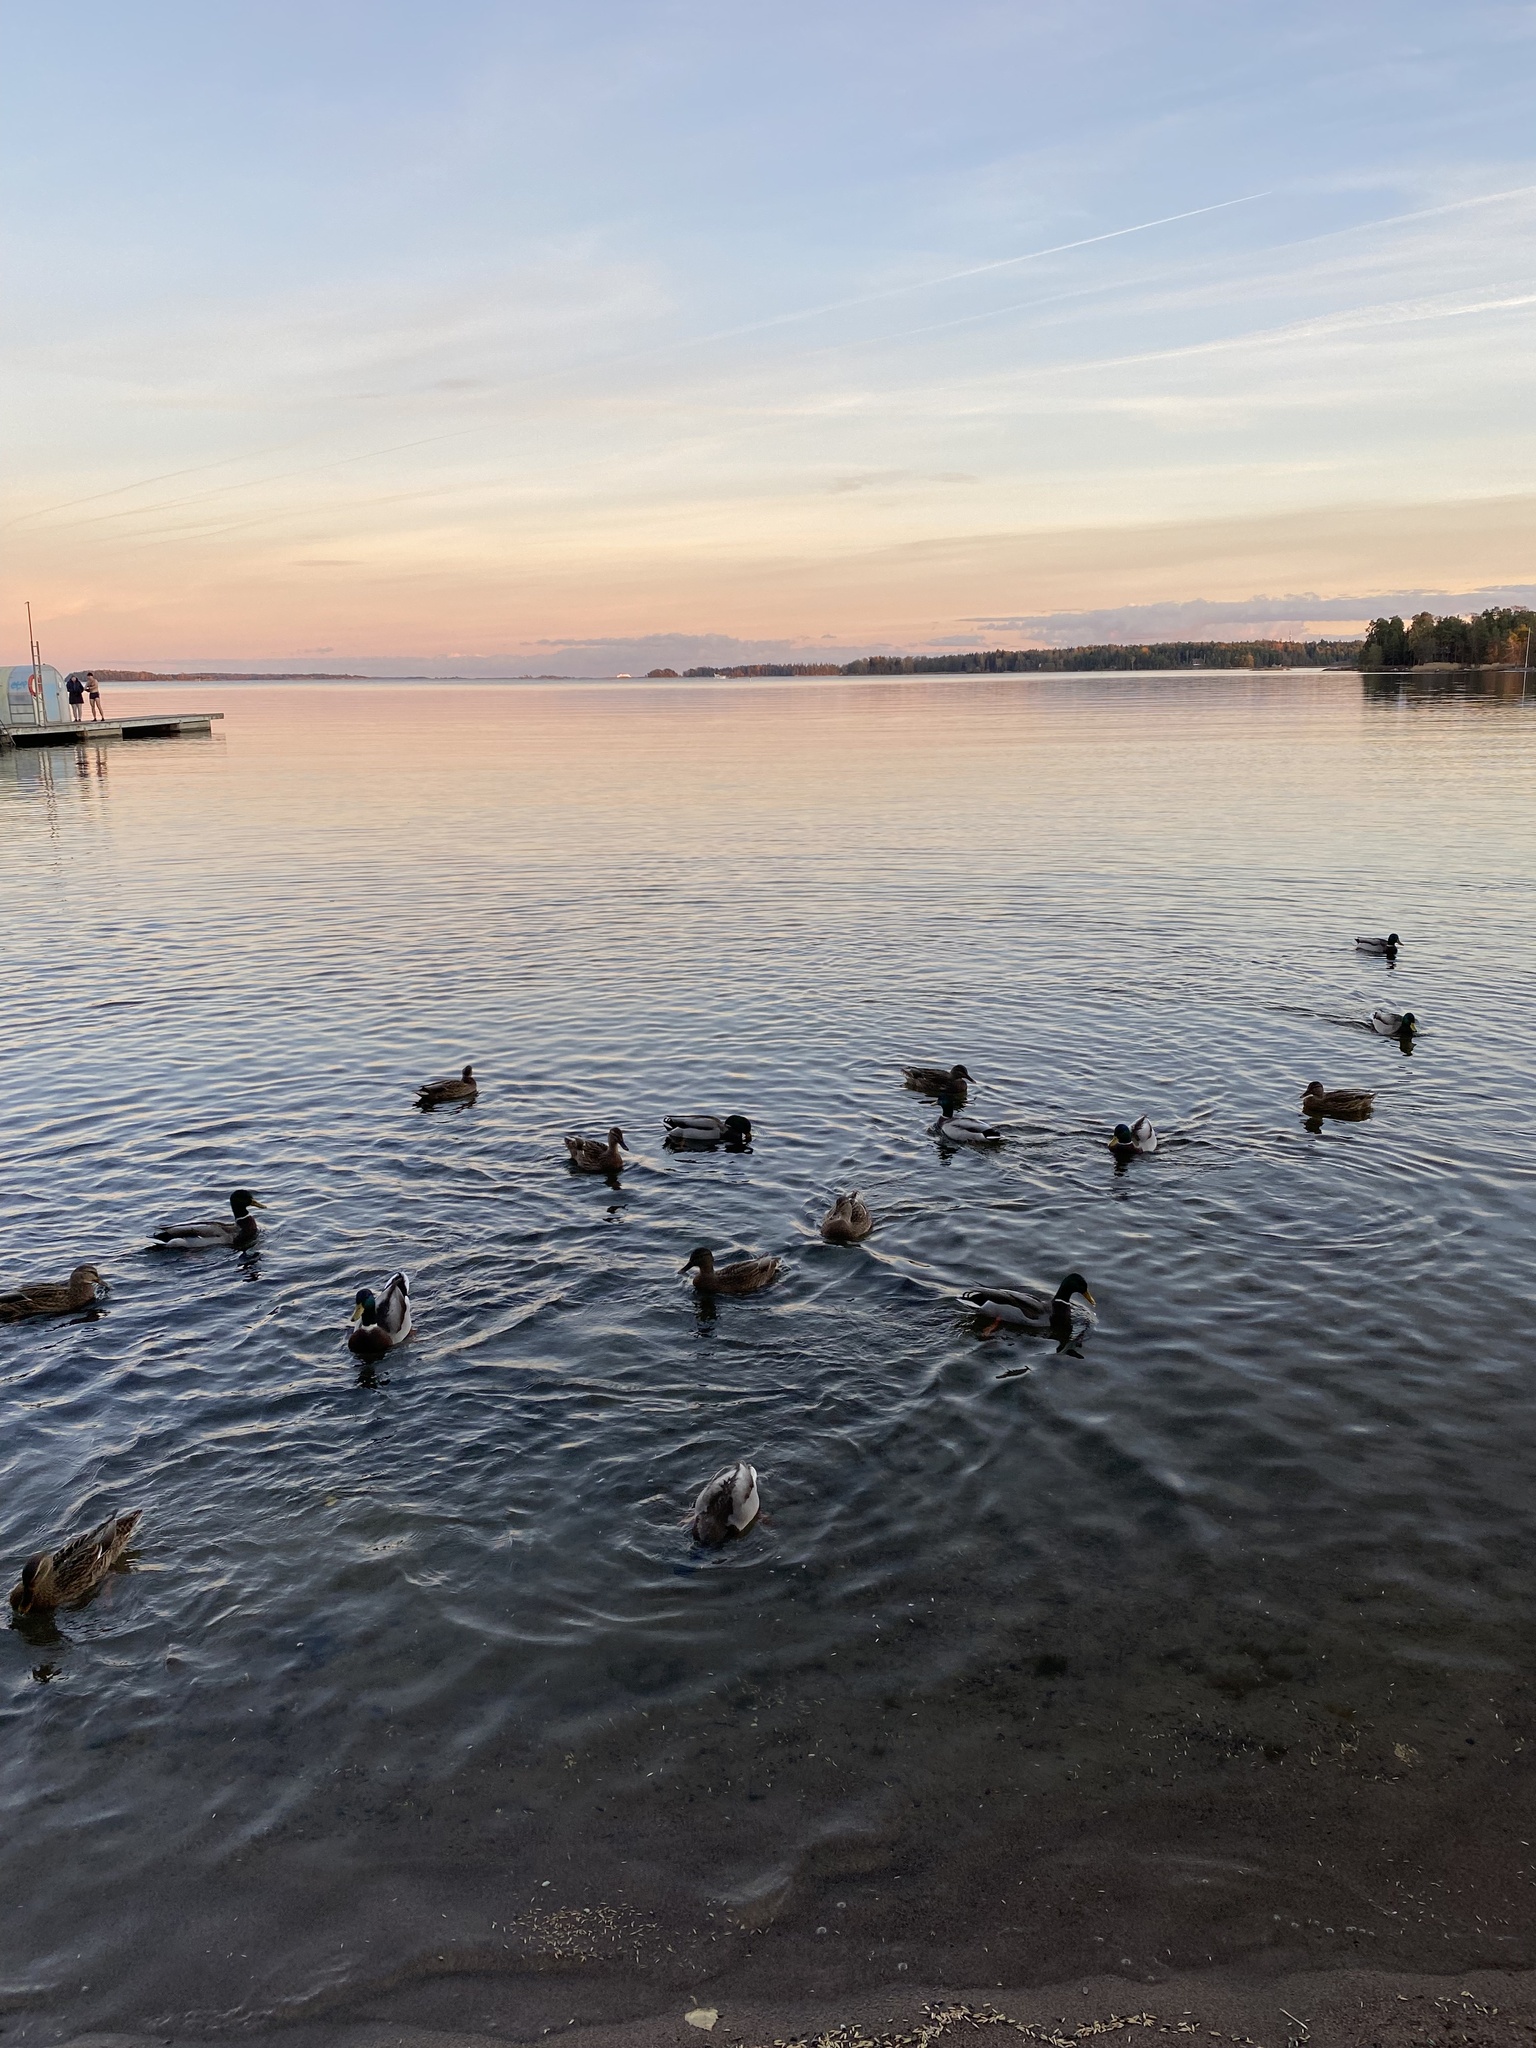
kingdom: Animalia
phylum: Chordata
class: Aves
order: Anseriformes
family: Anatidae
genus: Anas
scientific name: Anas platyrhynchos
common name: Mallard
